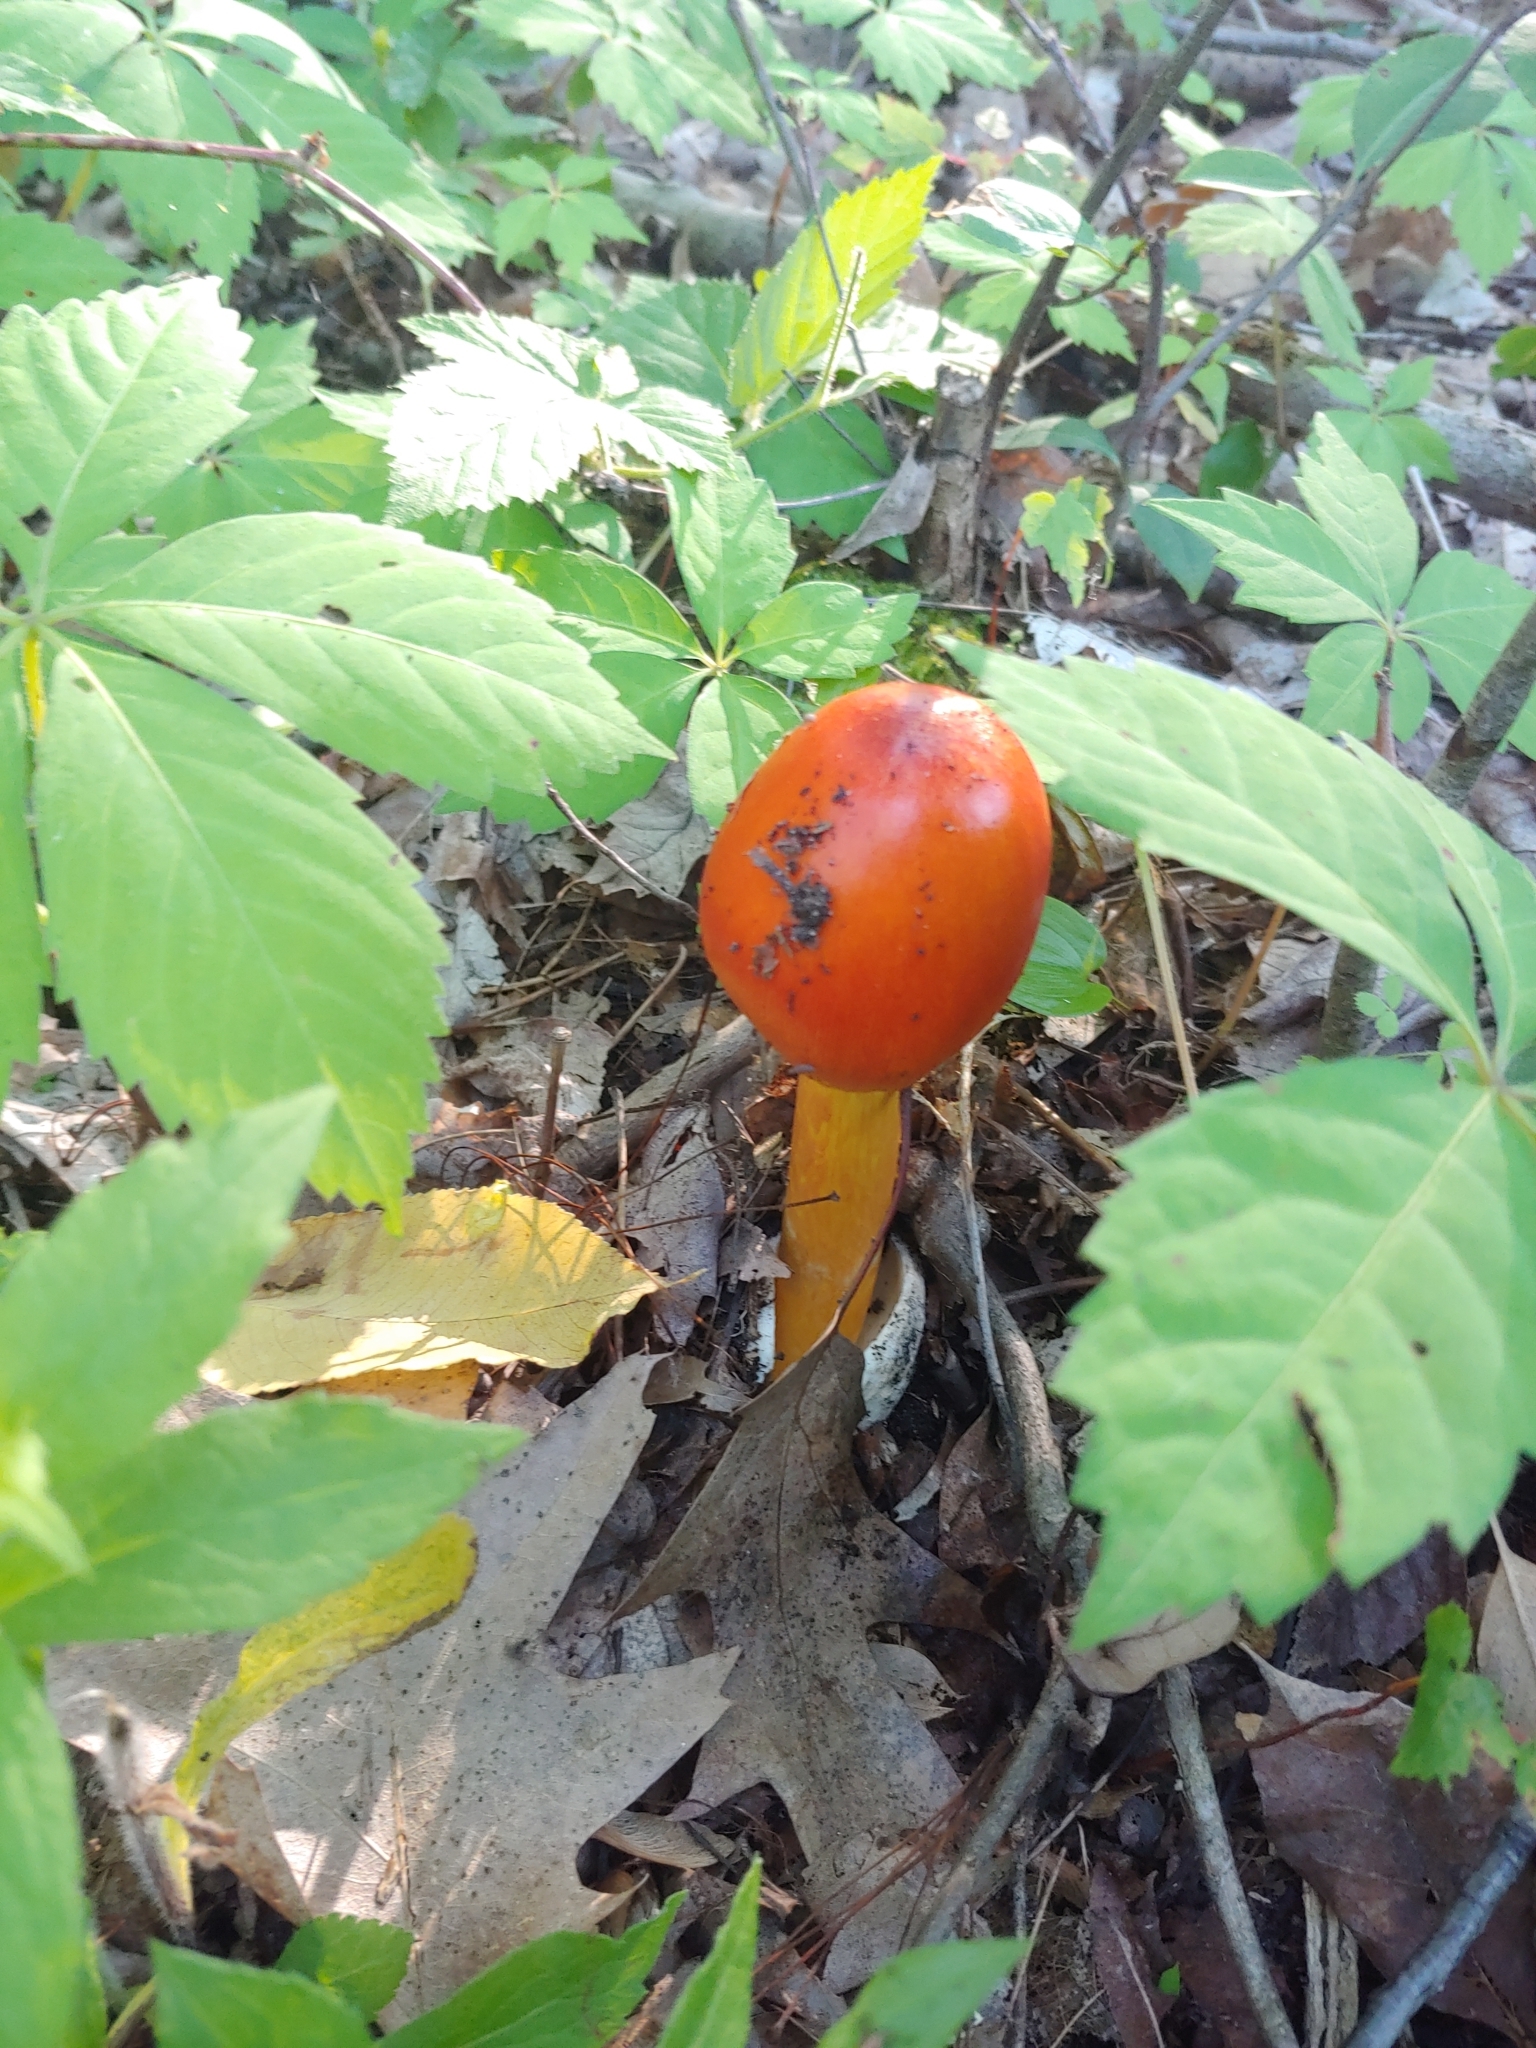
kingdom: Fungi
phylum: Basidiomycota
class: Agaricomycetes
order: Agaricales
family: Amanitaceae
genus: Amanita
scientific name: Amanita jacksonii
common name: Jackson's slender caesar
